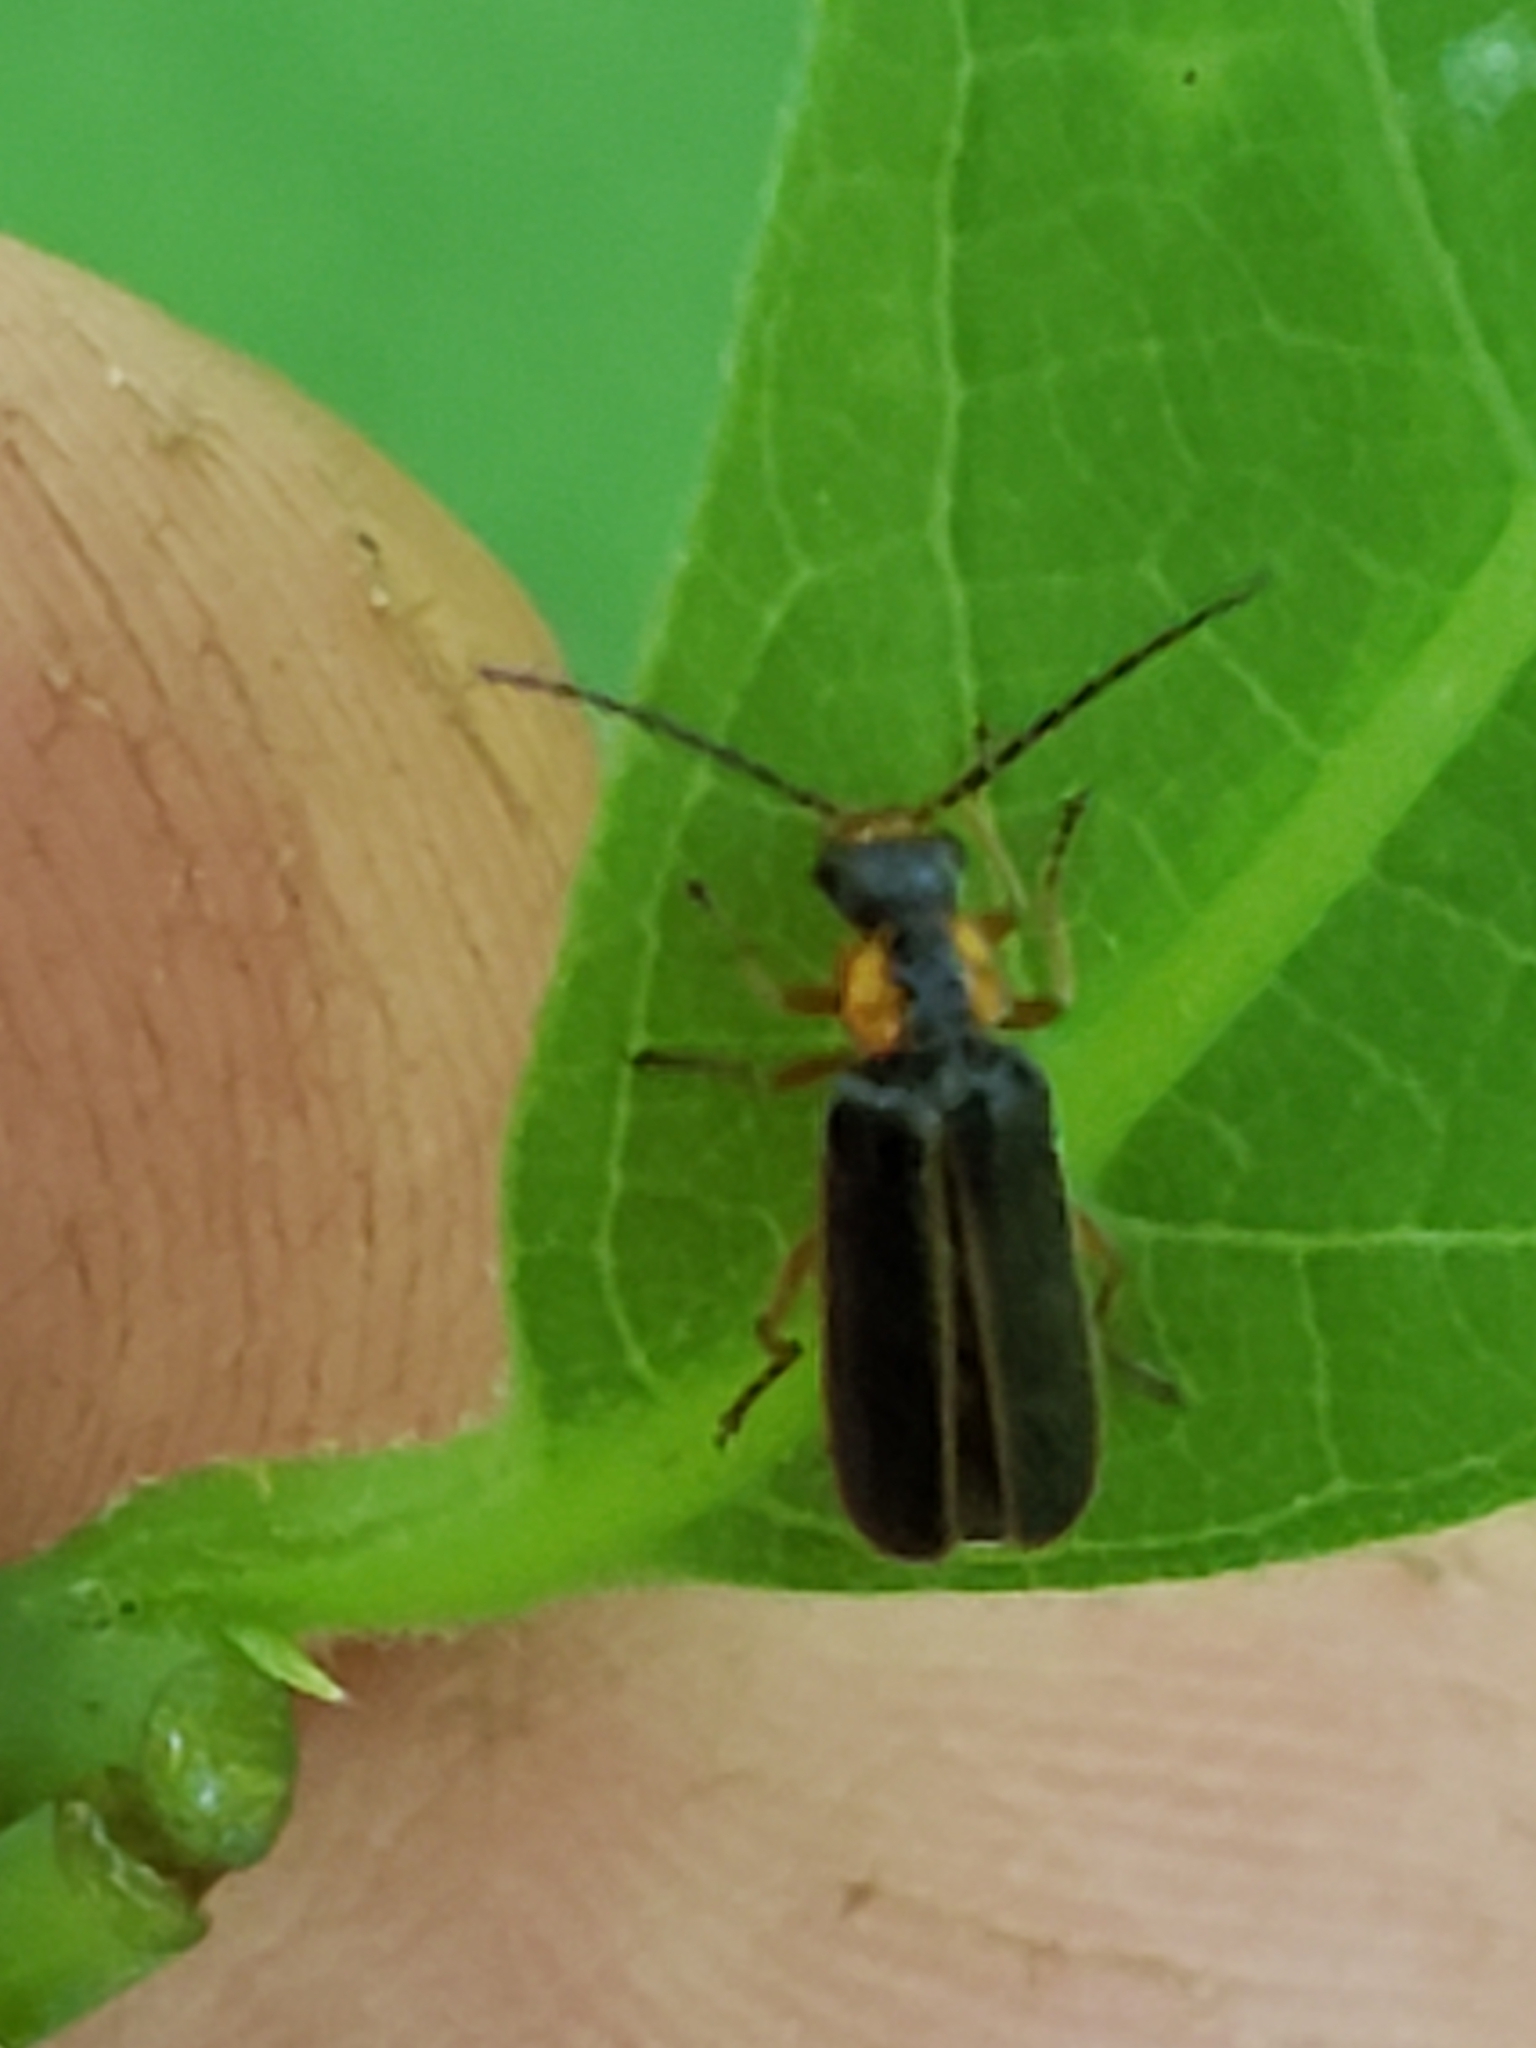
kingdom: Animalia
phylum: Arthropoda
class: Insecta
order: Coleoptera
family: Cantharidae
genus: Rhagonycha
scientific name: Rhagonycha scitula
